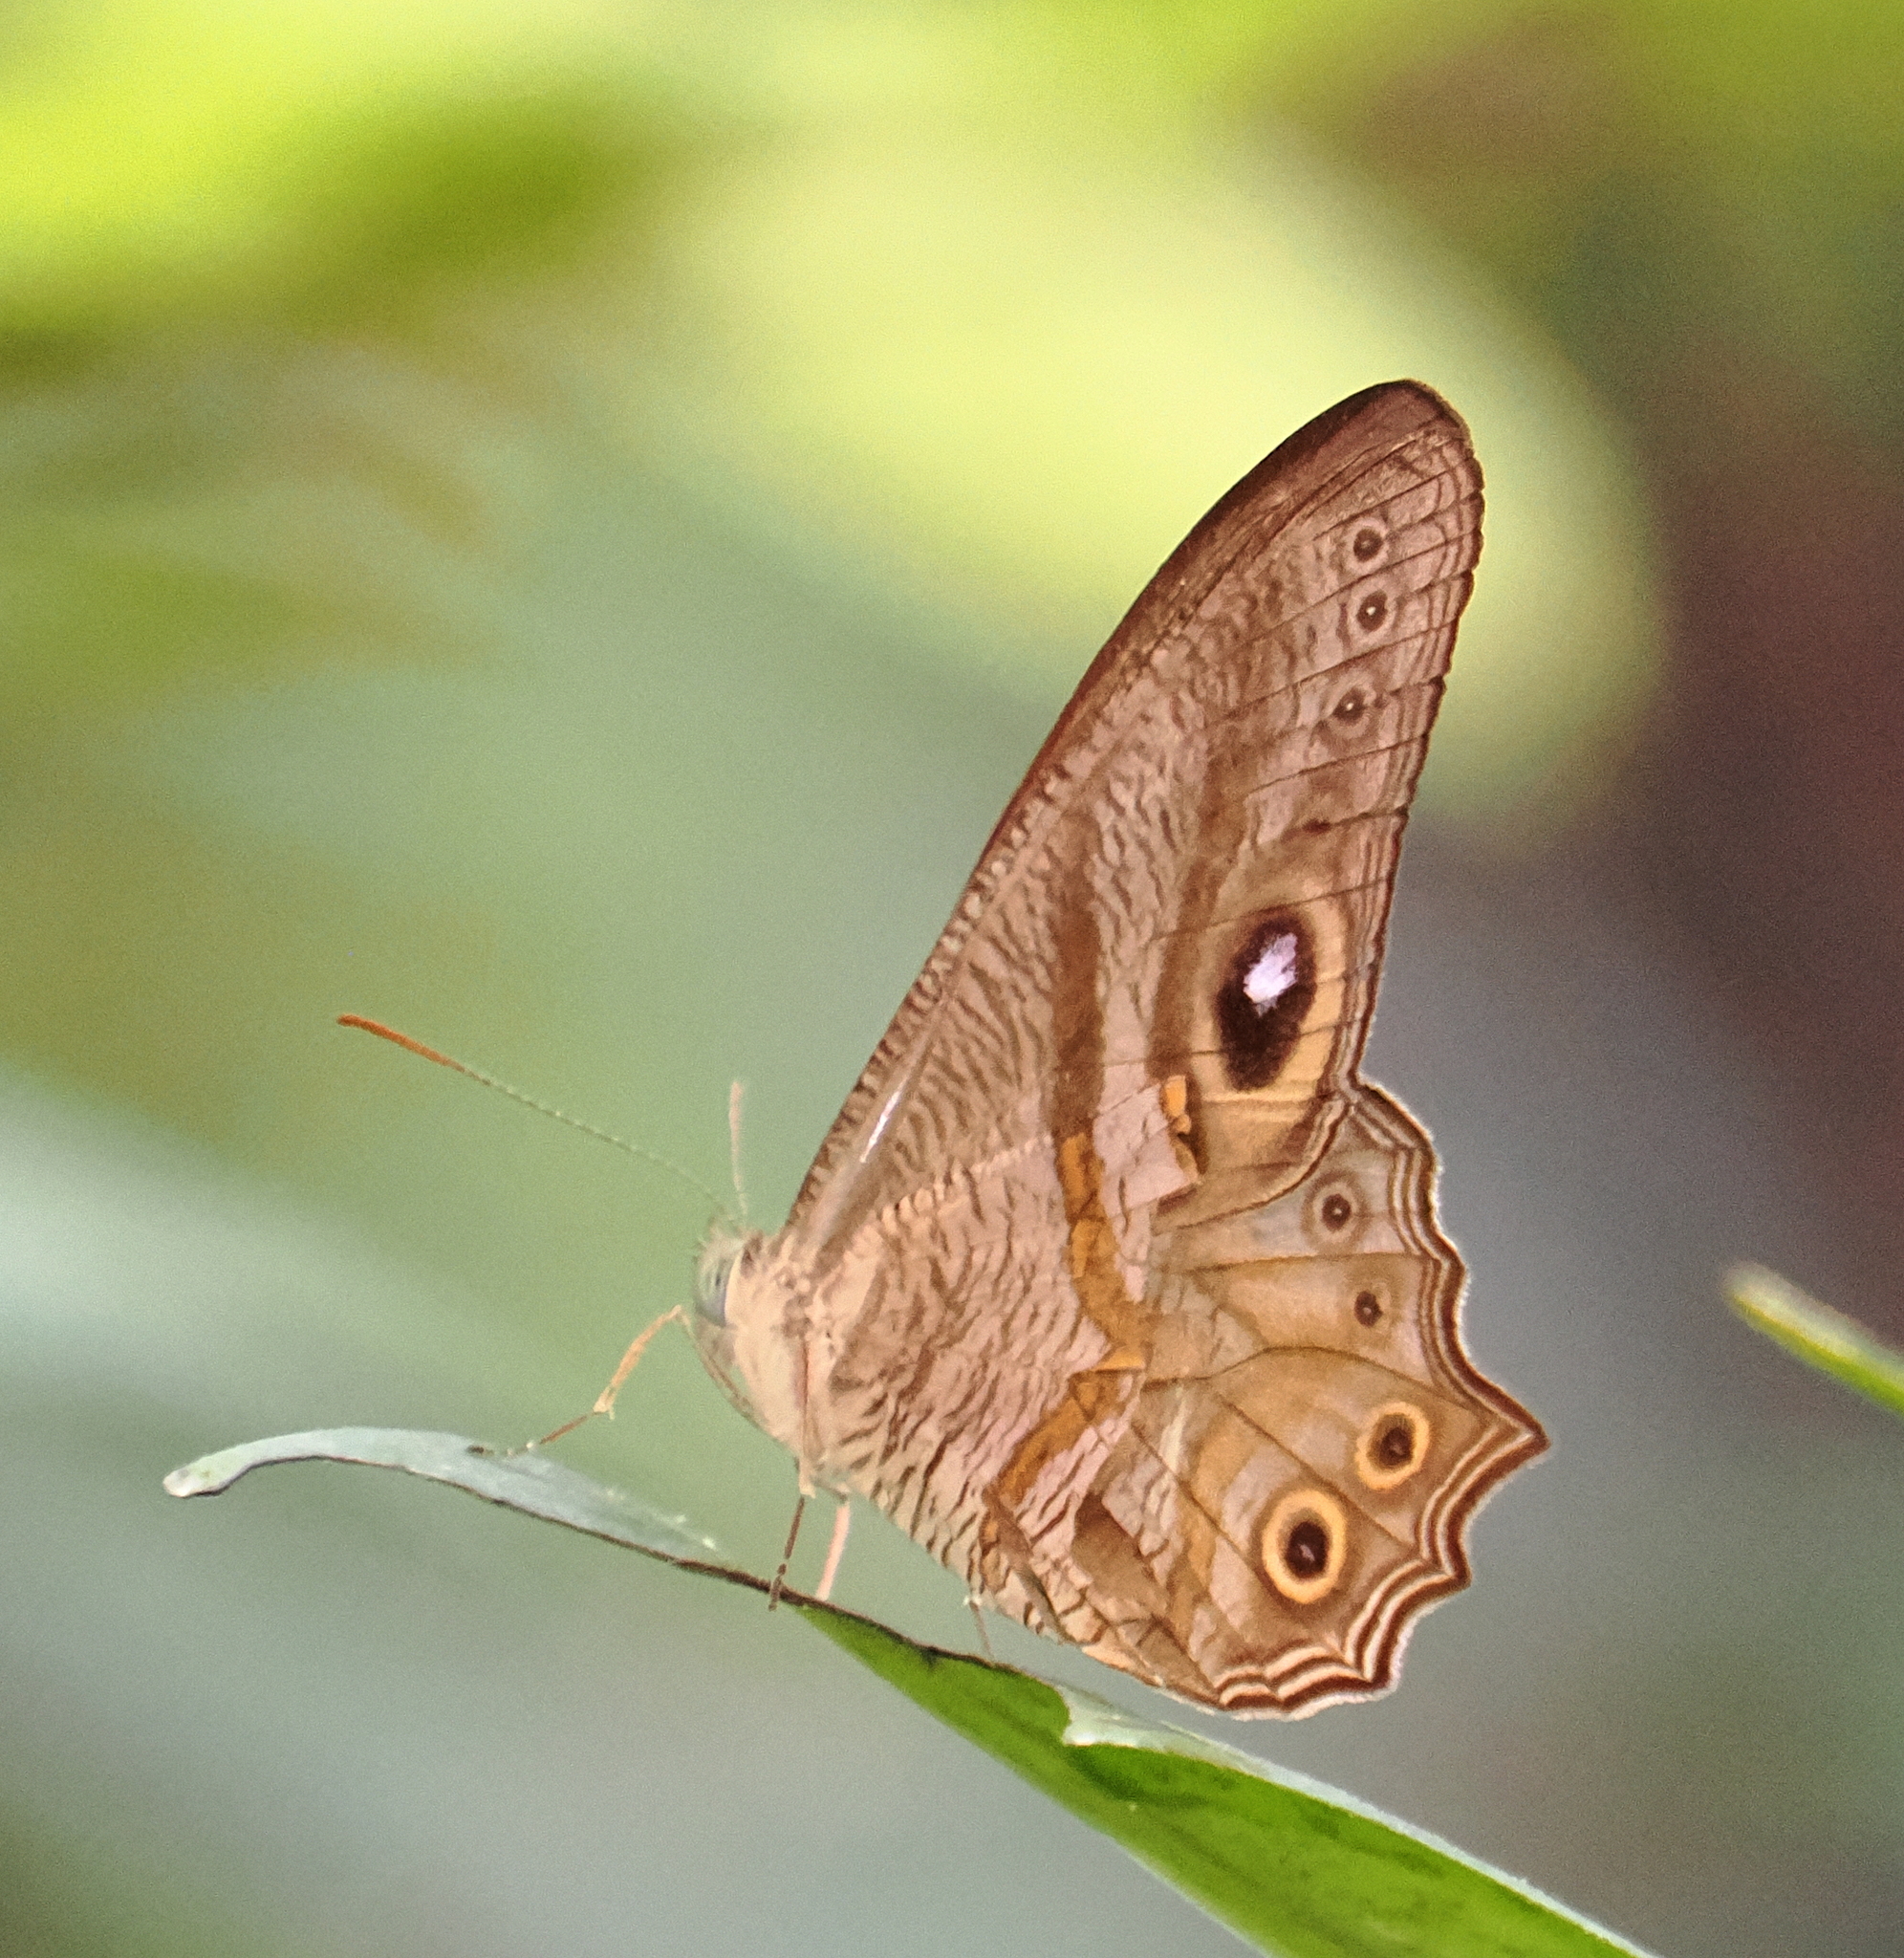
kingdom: Animalia
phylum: Arthropoda
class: Insecta
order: Lepidoptera
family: Nymphalidae
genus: Erites
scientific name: Erites angularis
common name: Angled cyclops
